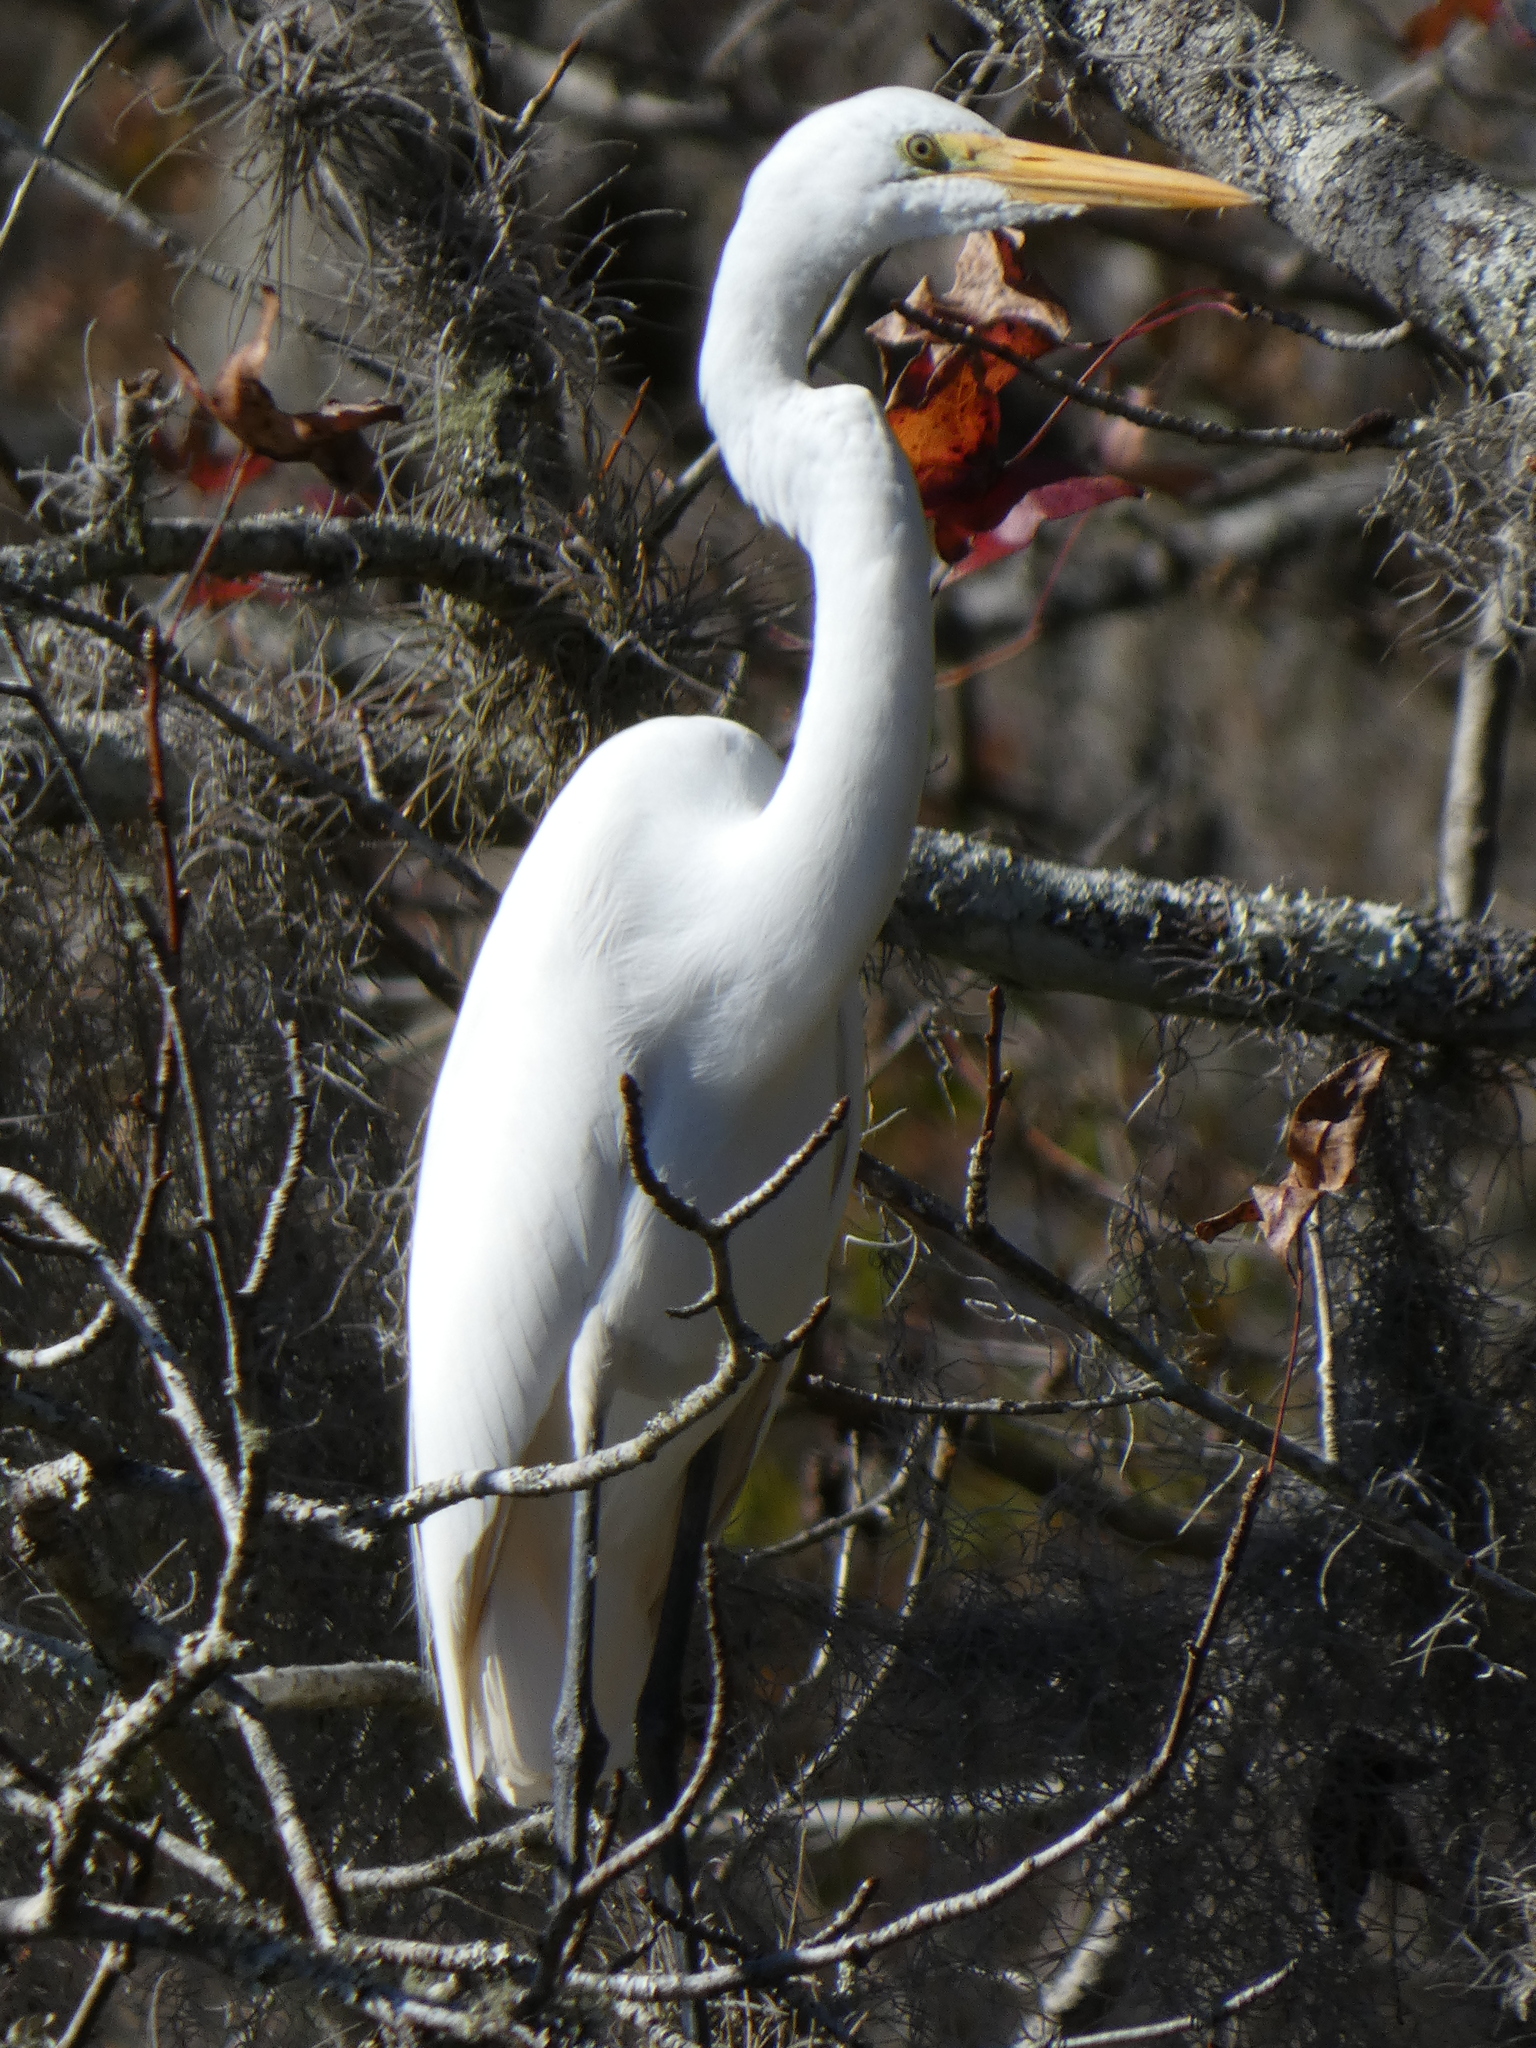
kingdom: Animalia
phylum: Chordata
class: Aves
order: Pelecaniformes
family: Ardeidae
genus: Ardea
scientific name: Ardea alba
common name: Great egret
